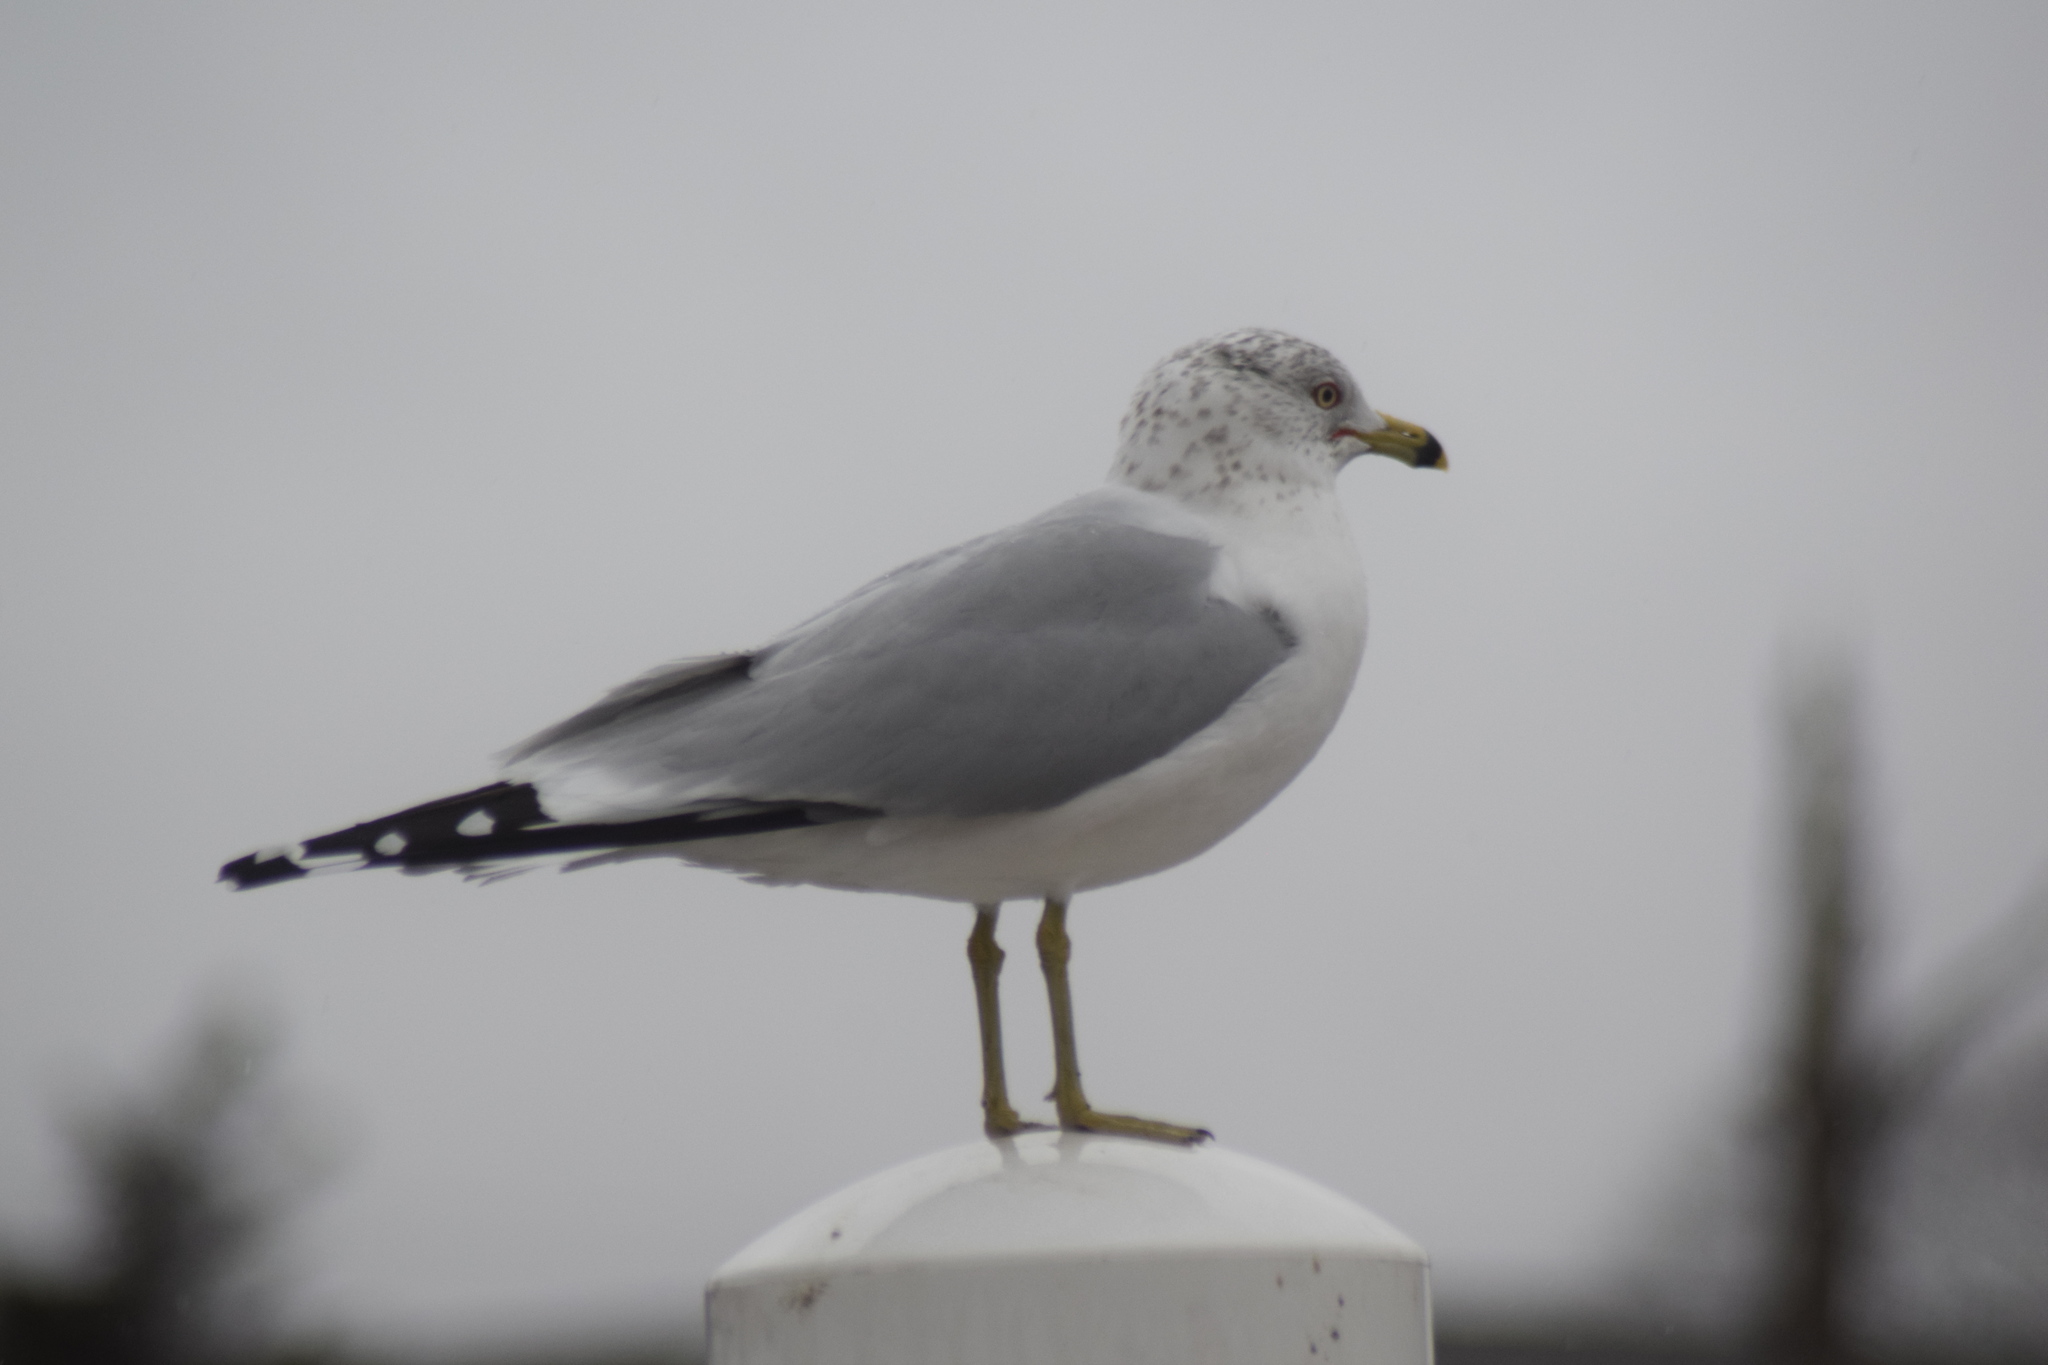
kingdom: Animalia
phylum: Chordata
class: Aves
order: Charadriiformes
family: Laridae
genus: Larus
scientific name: Larus delawarensis
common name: Ring-billed gull
